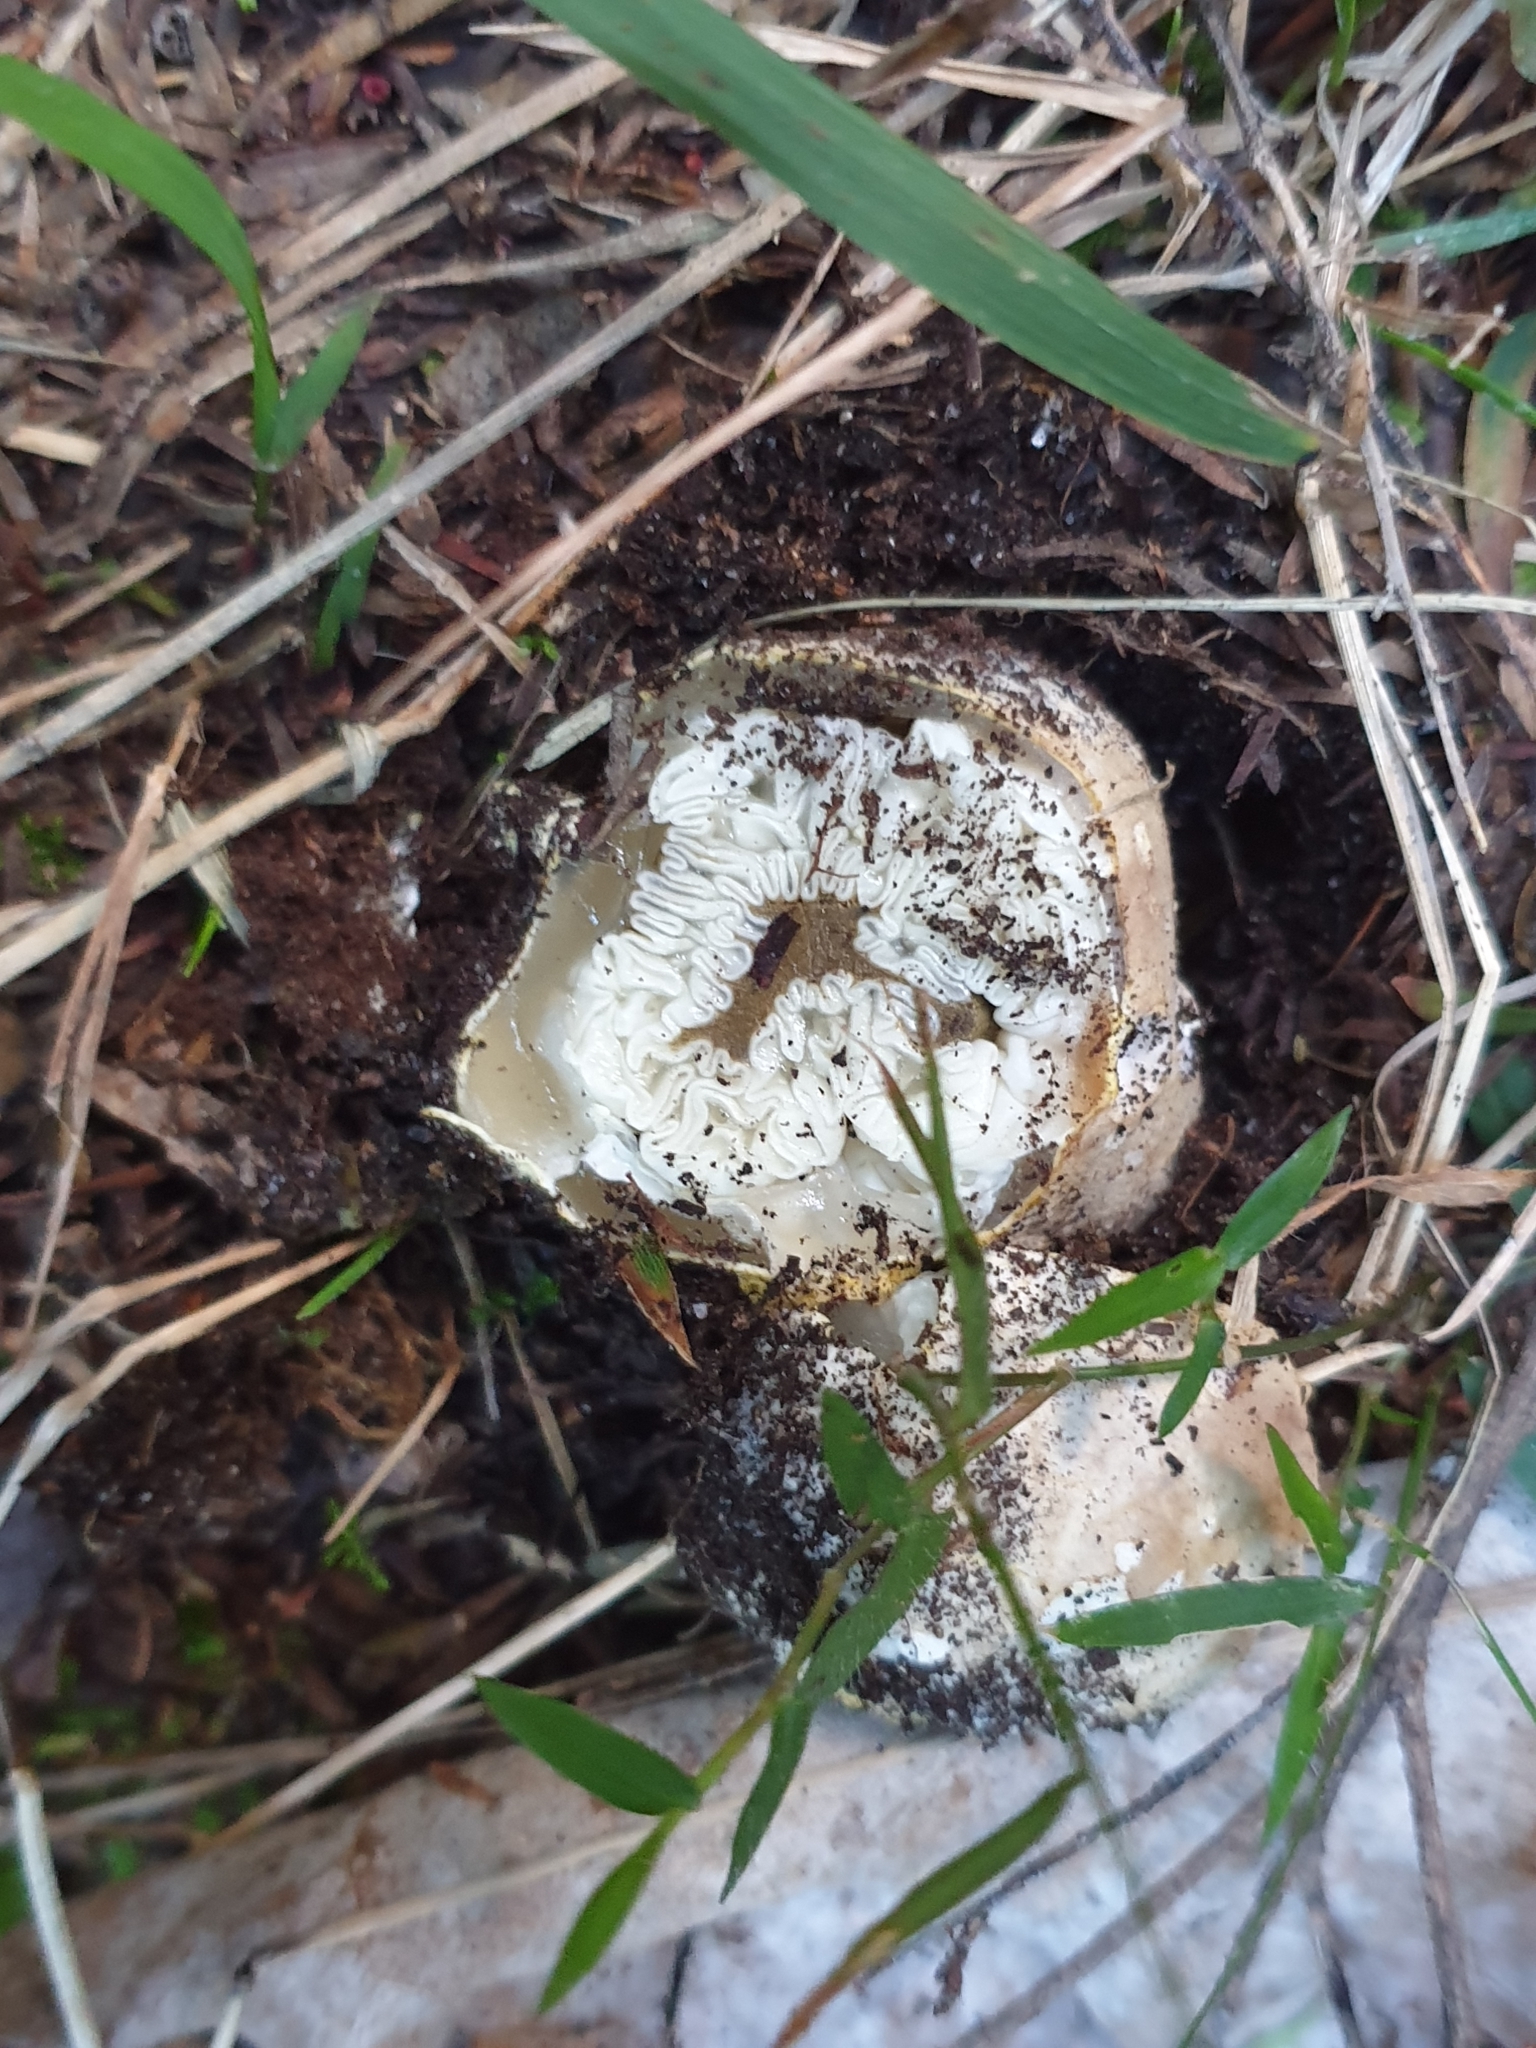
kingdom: Fungi
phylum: Basidiomycota
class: Agaricomycetes
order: Phallales
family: Phallaceae
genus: Ileodictyon
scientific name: Ileodictyon cibarium
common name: Basket fungus
